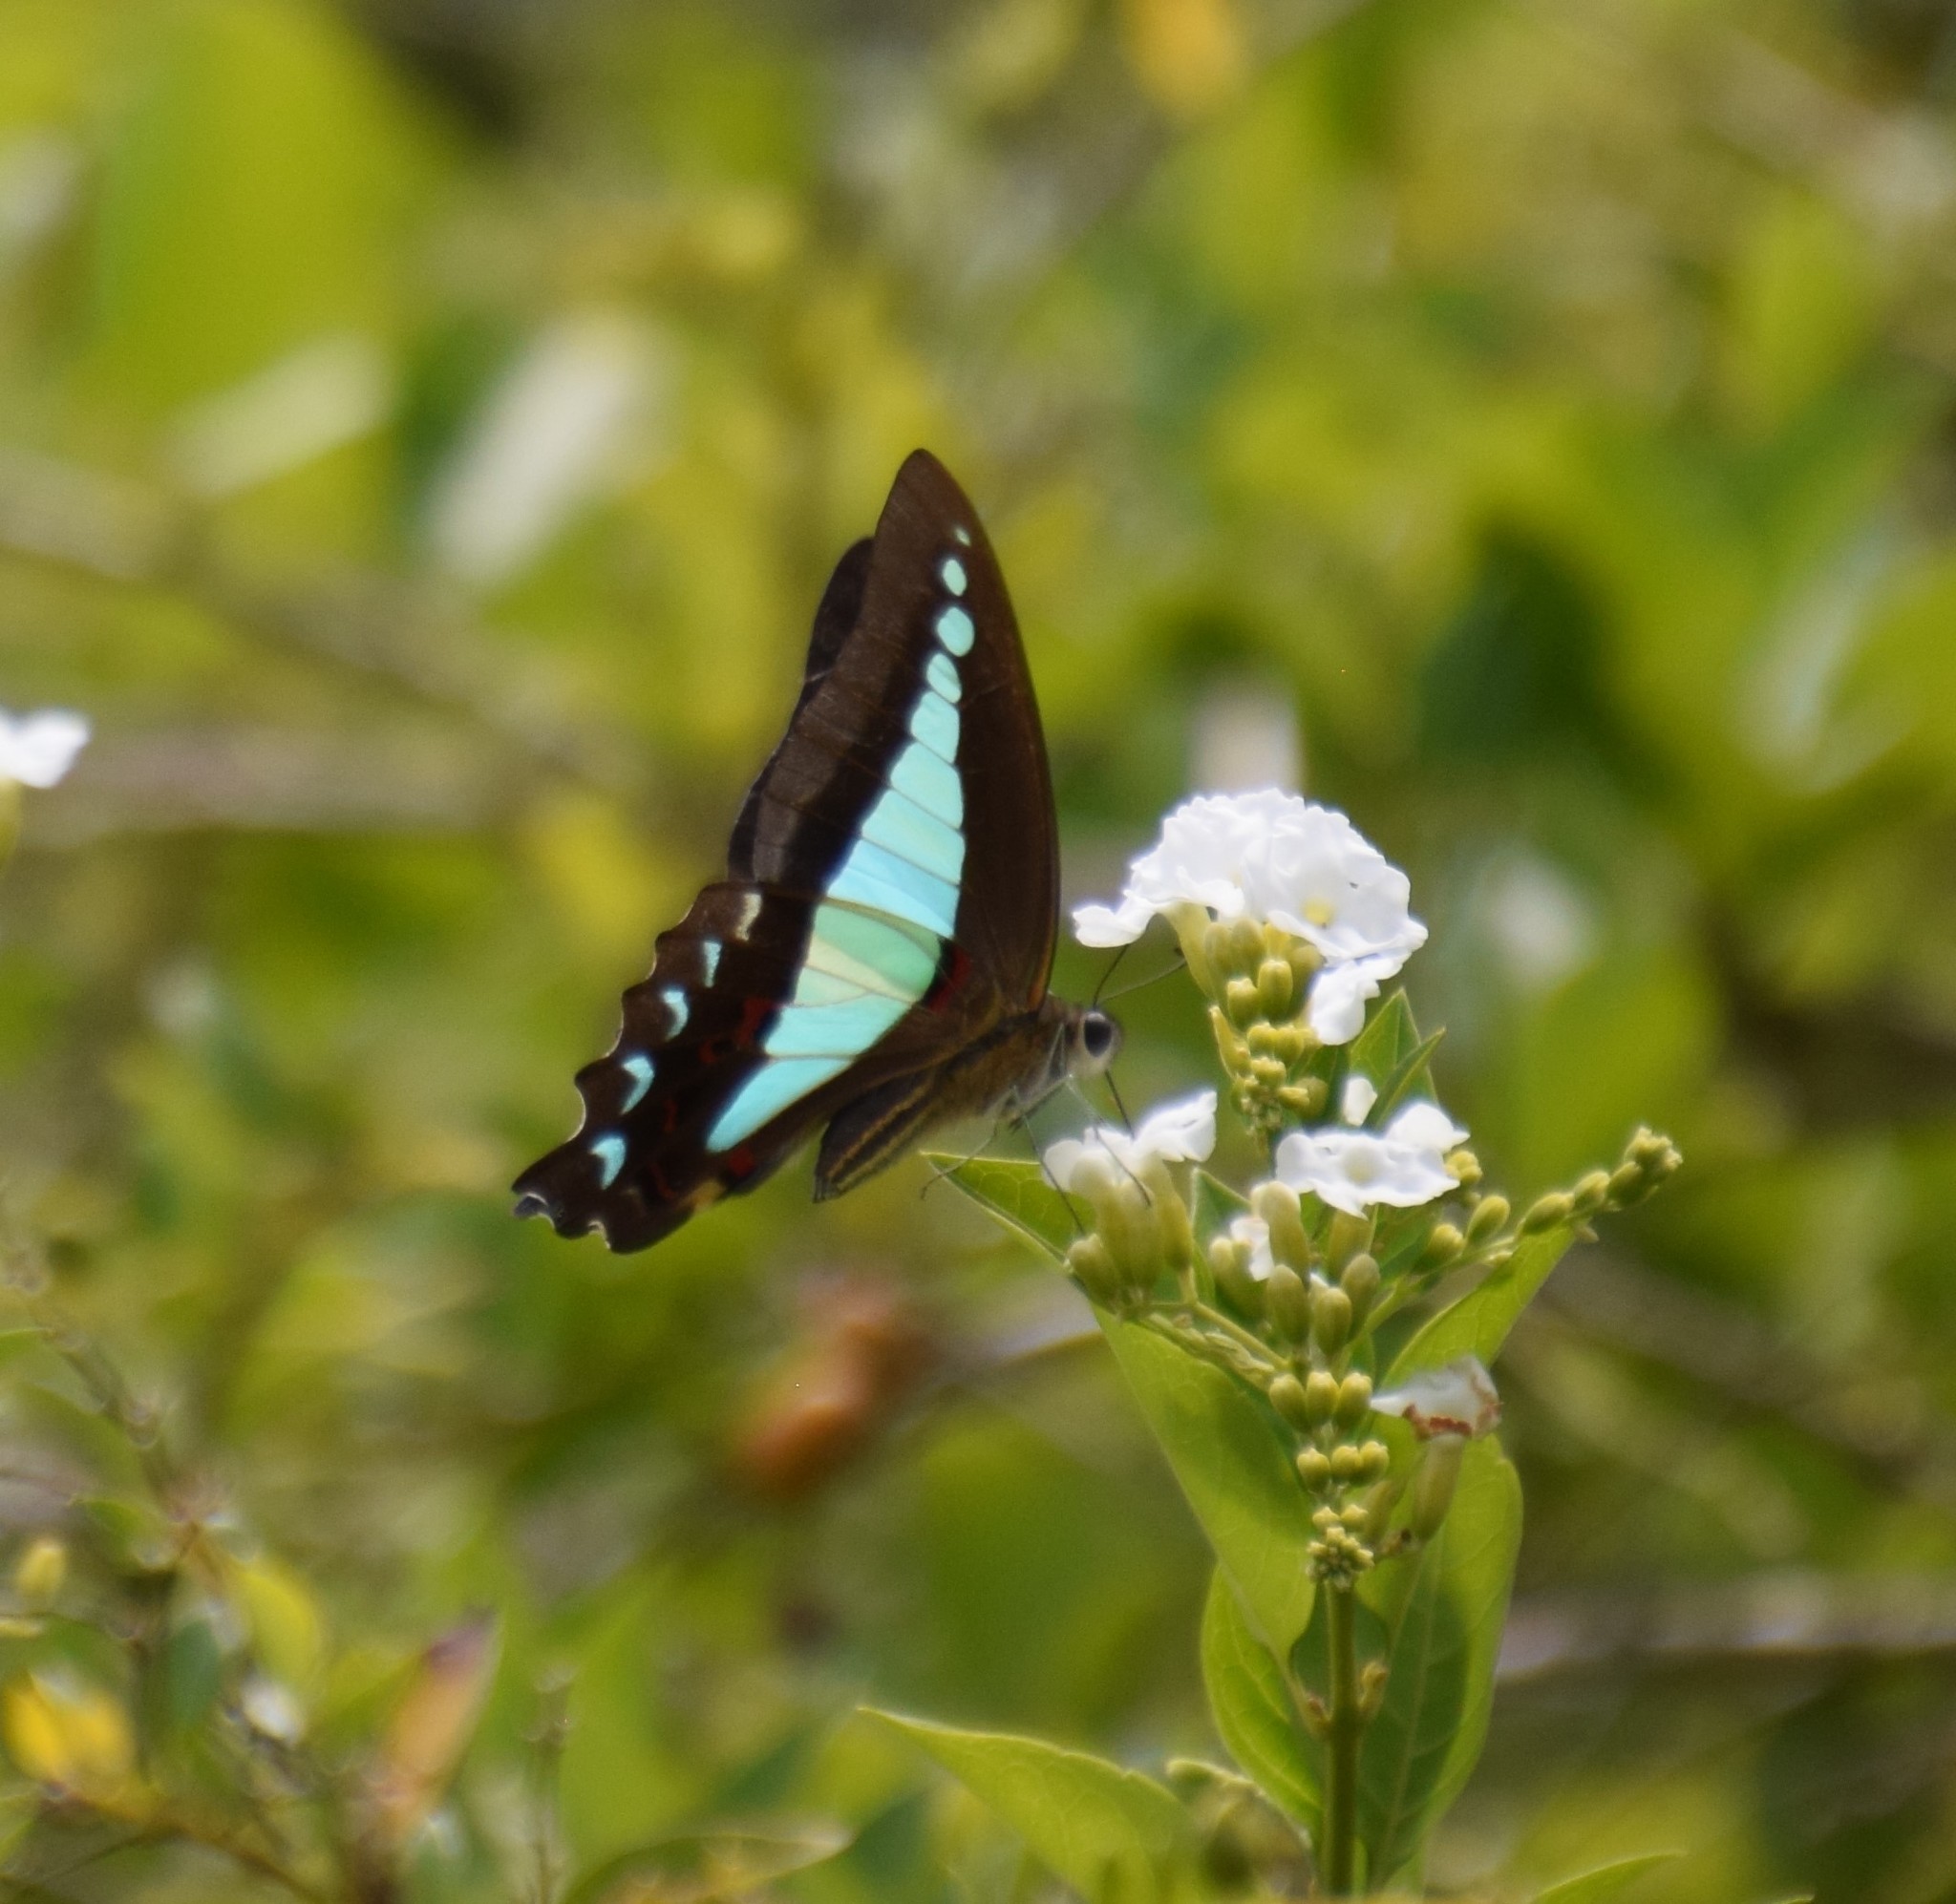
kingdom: Animalia
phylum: Arthropoda
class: Insecta
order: Lepidoptera
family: Papilionidae
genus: Graphium
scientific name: Graphium
